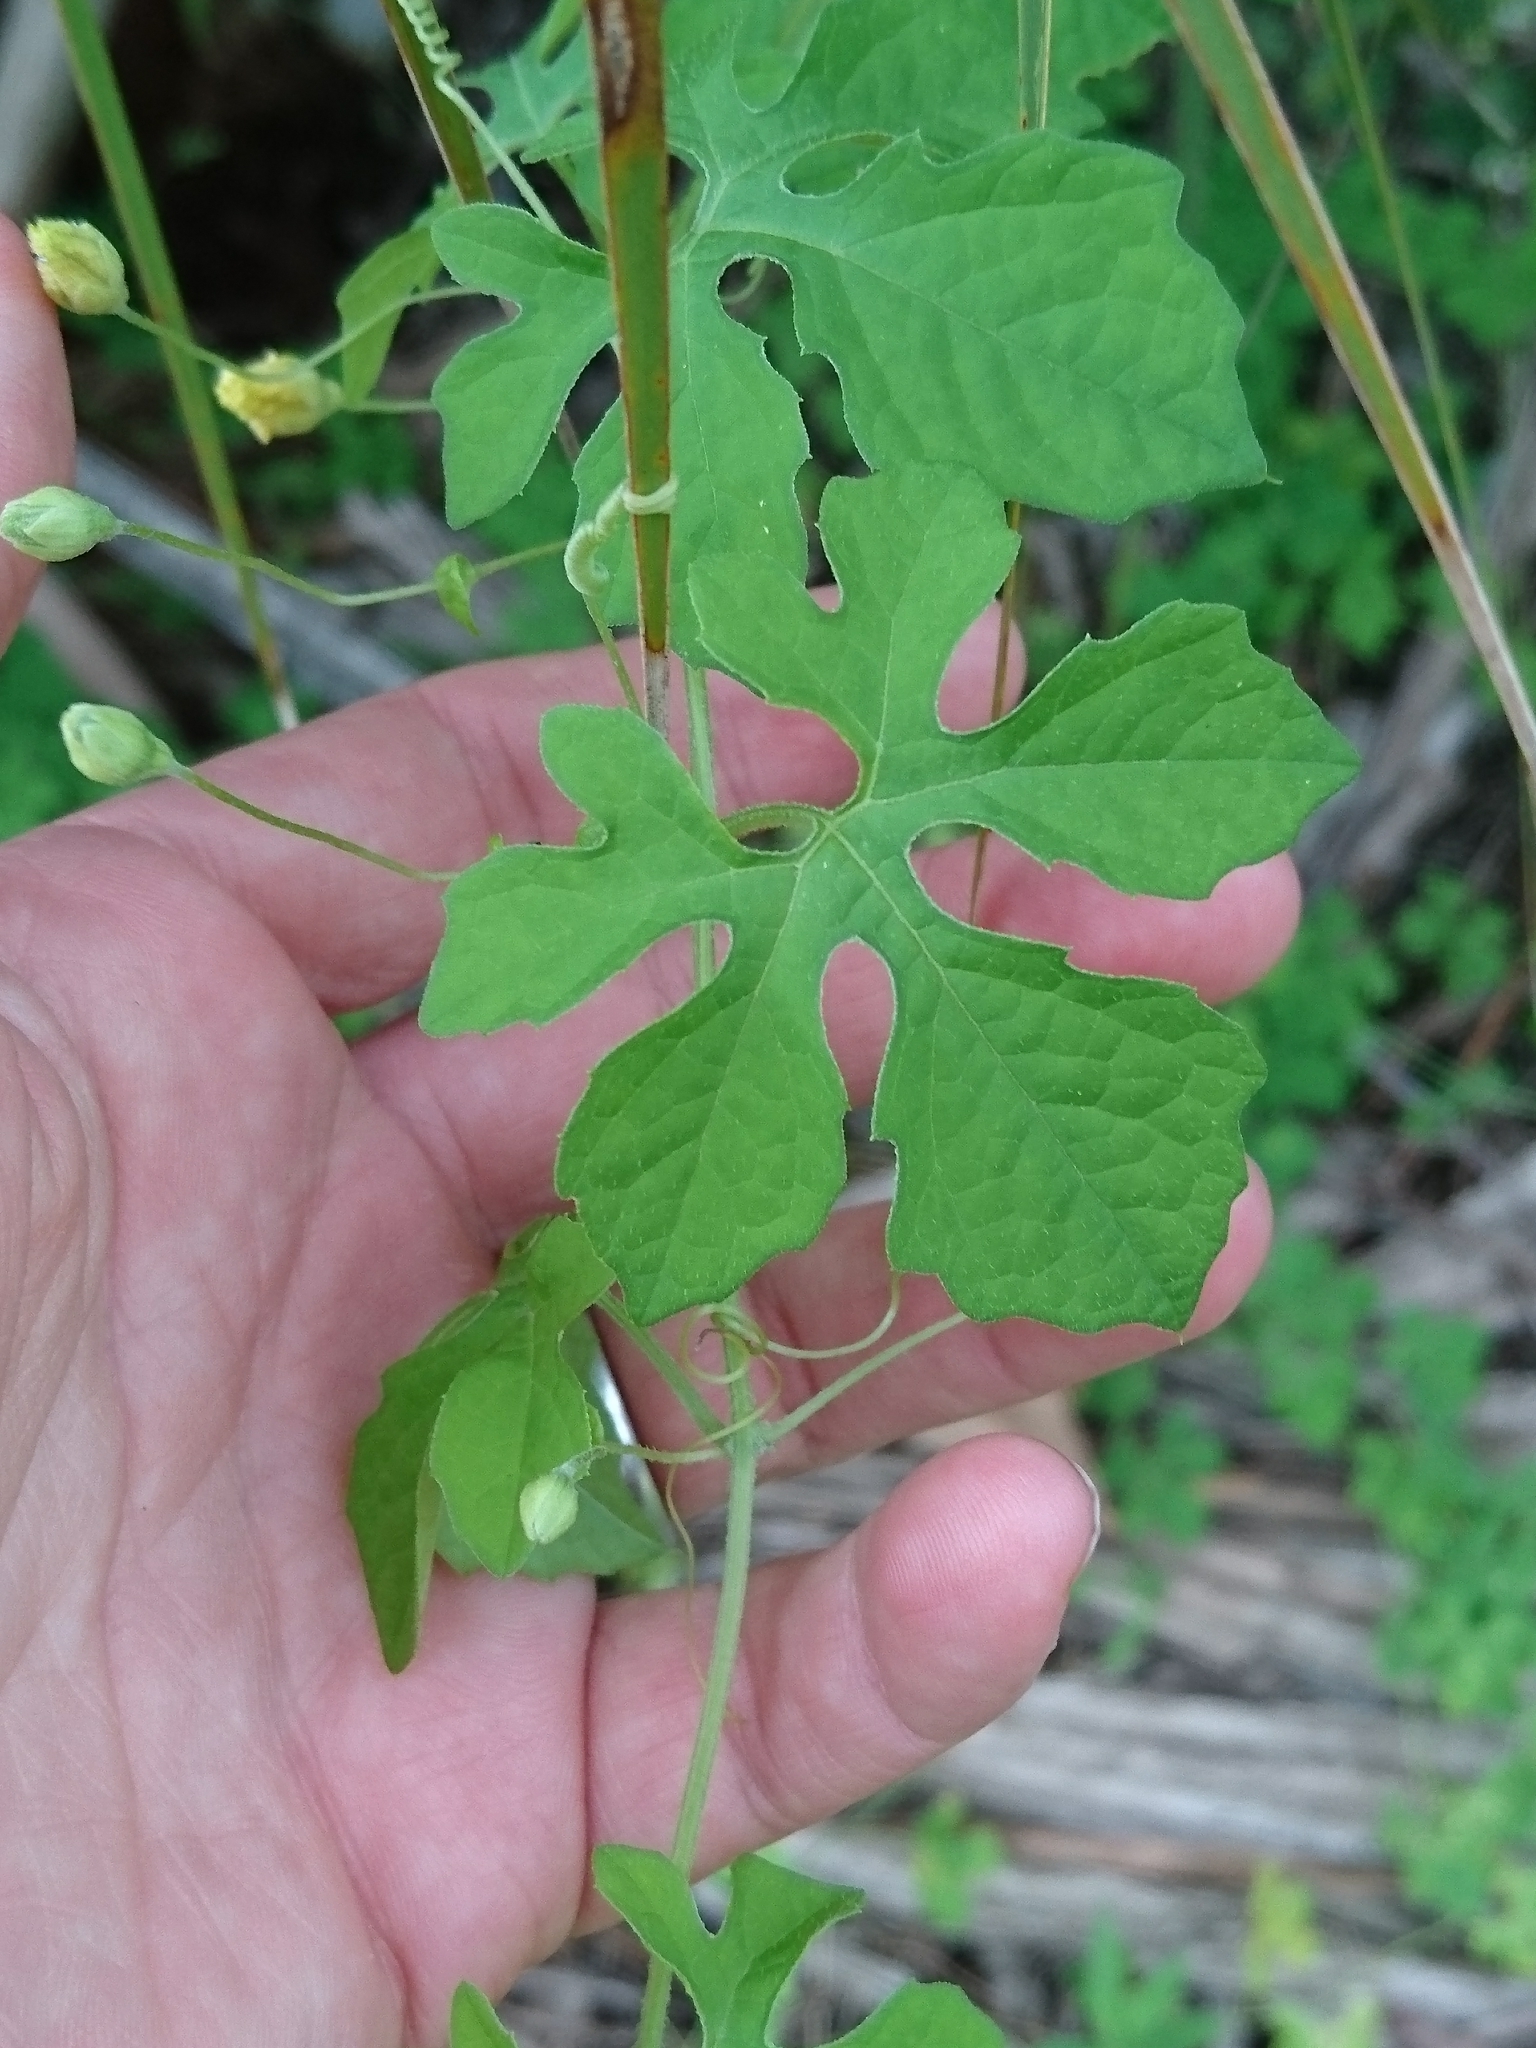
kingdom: Plantae
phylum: Tracheophyta
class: Magnoliopsida
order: Cucurbitales
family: Cucurbitaceae
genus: Momordica
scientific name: Momordica charantia
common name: Balsampear
